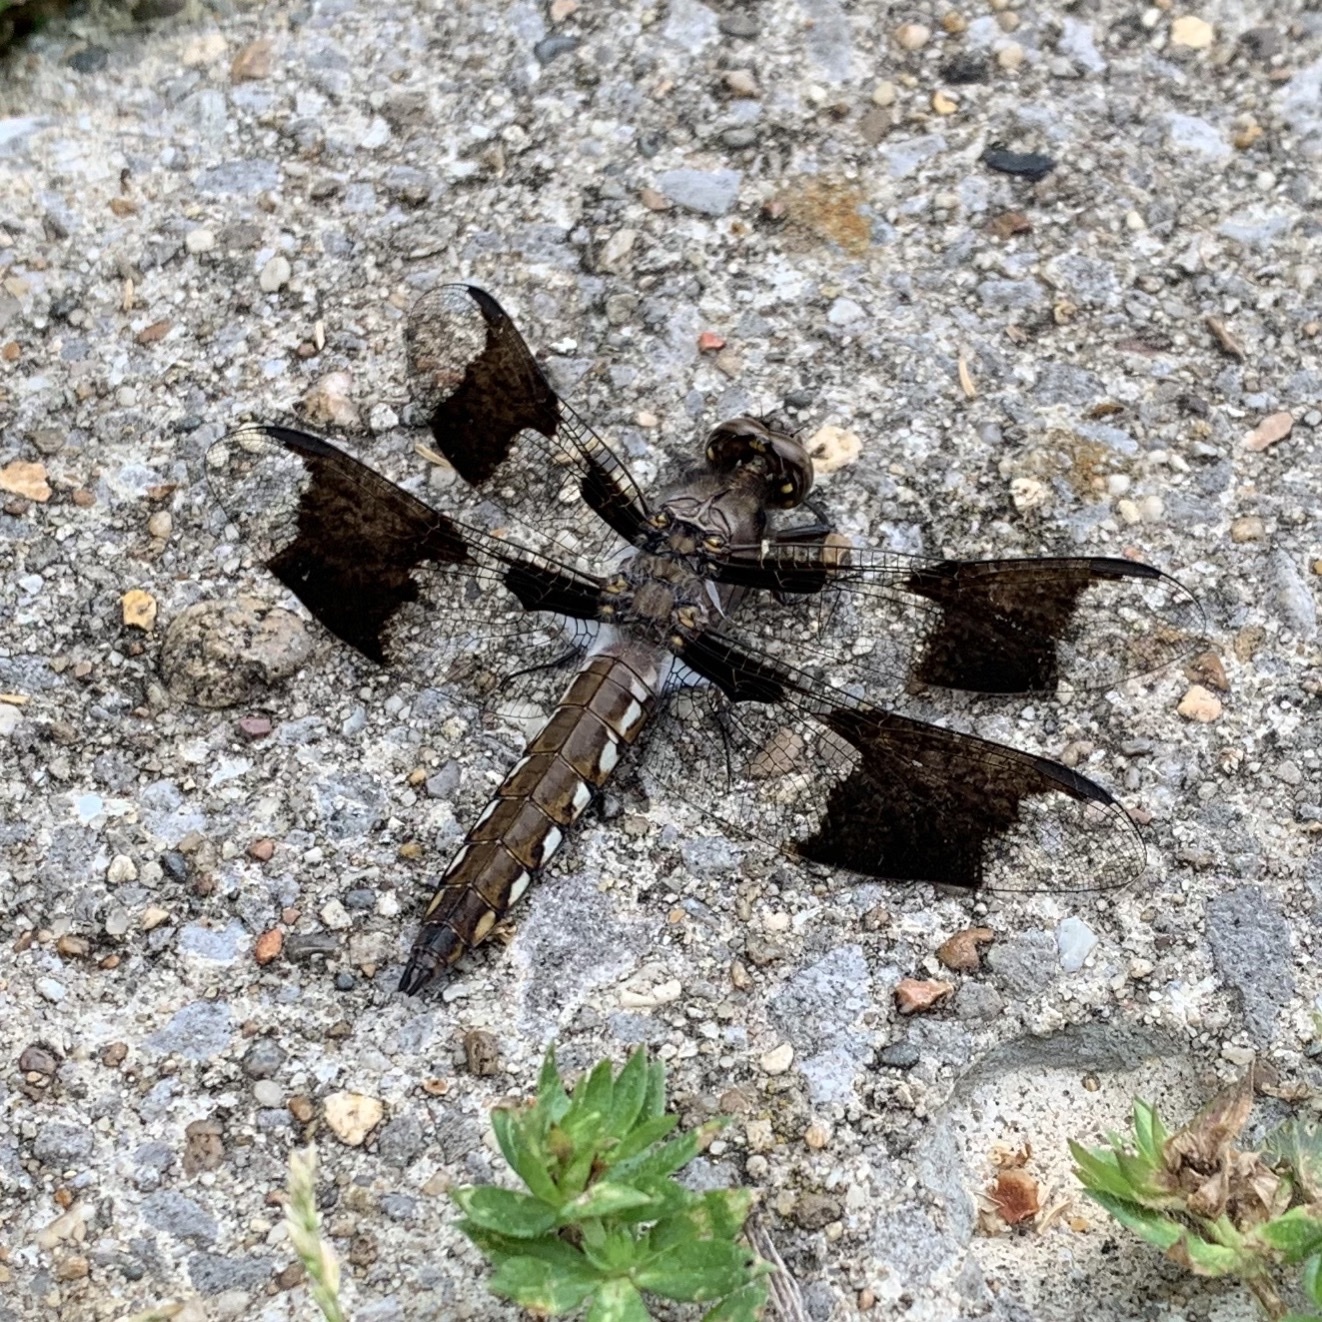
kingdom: Animalia
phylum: Arthropoda
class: Insecta
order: Odonata
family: Libellulidae
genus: Plathemis
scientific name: Plathemis lydia
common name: Common whitetail
